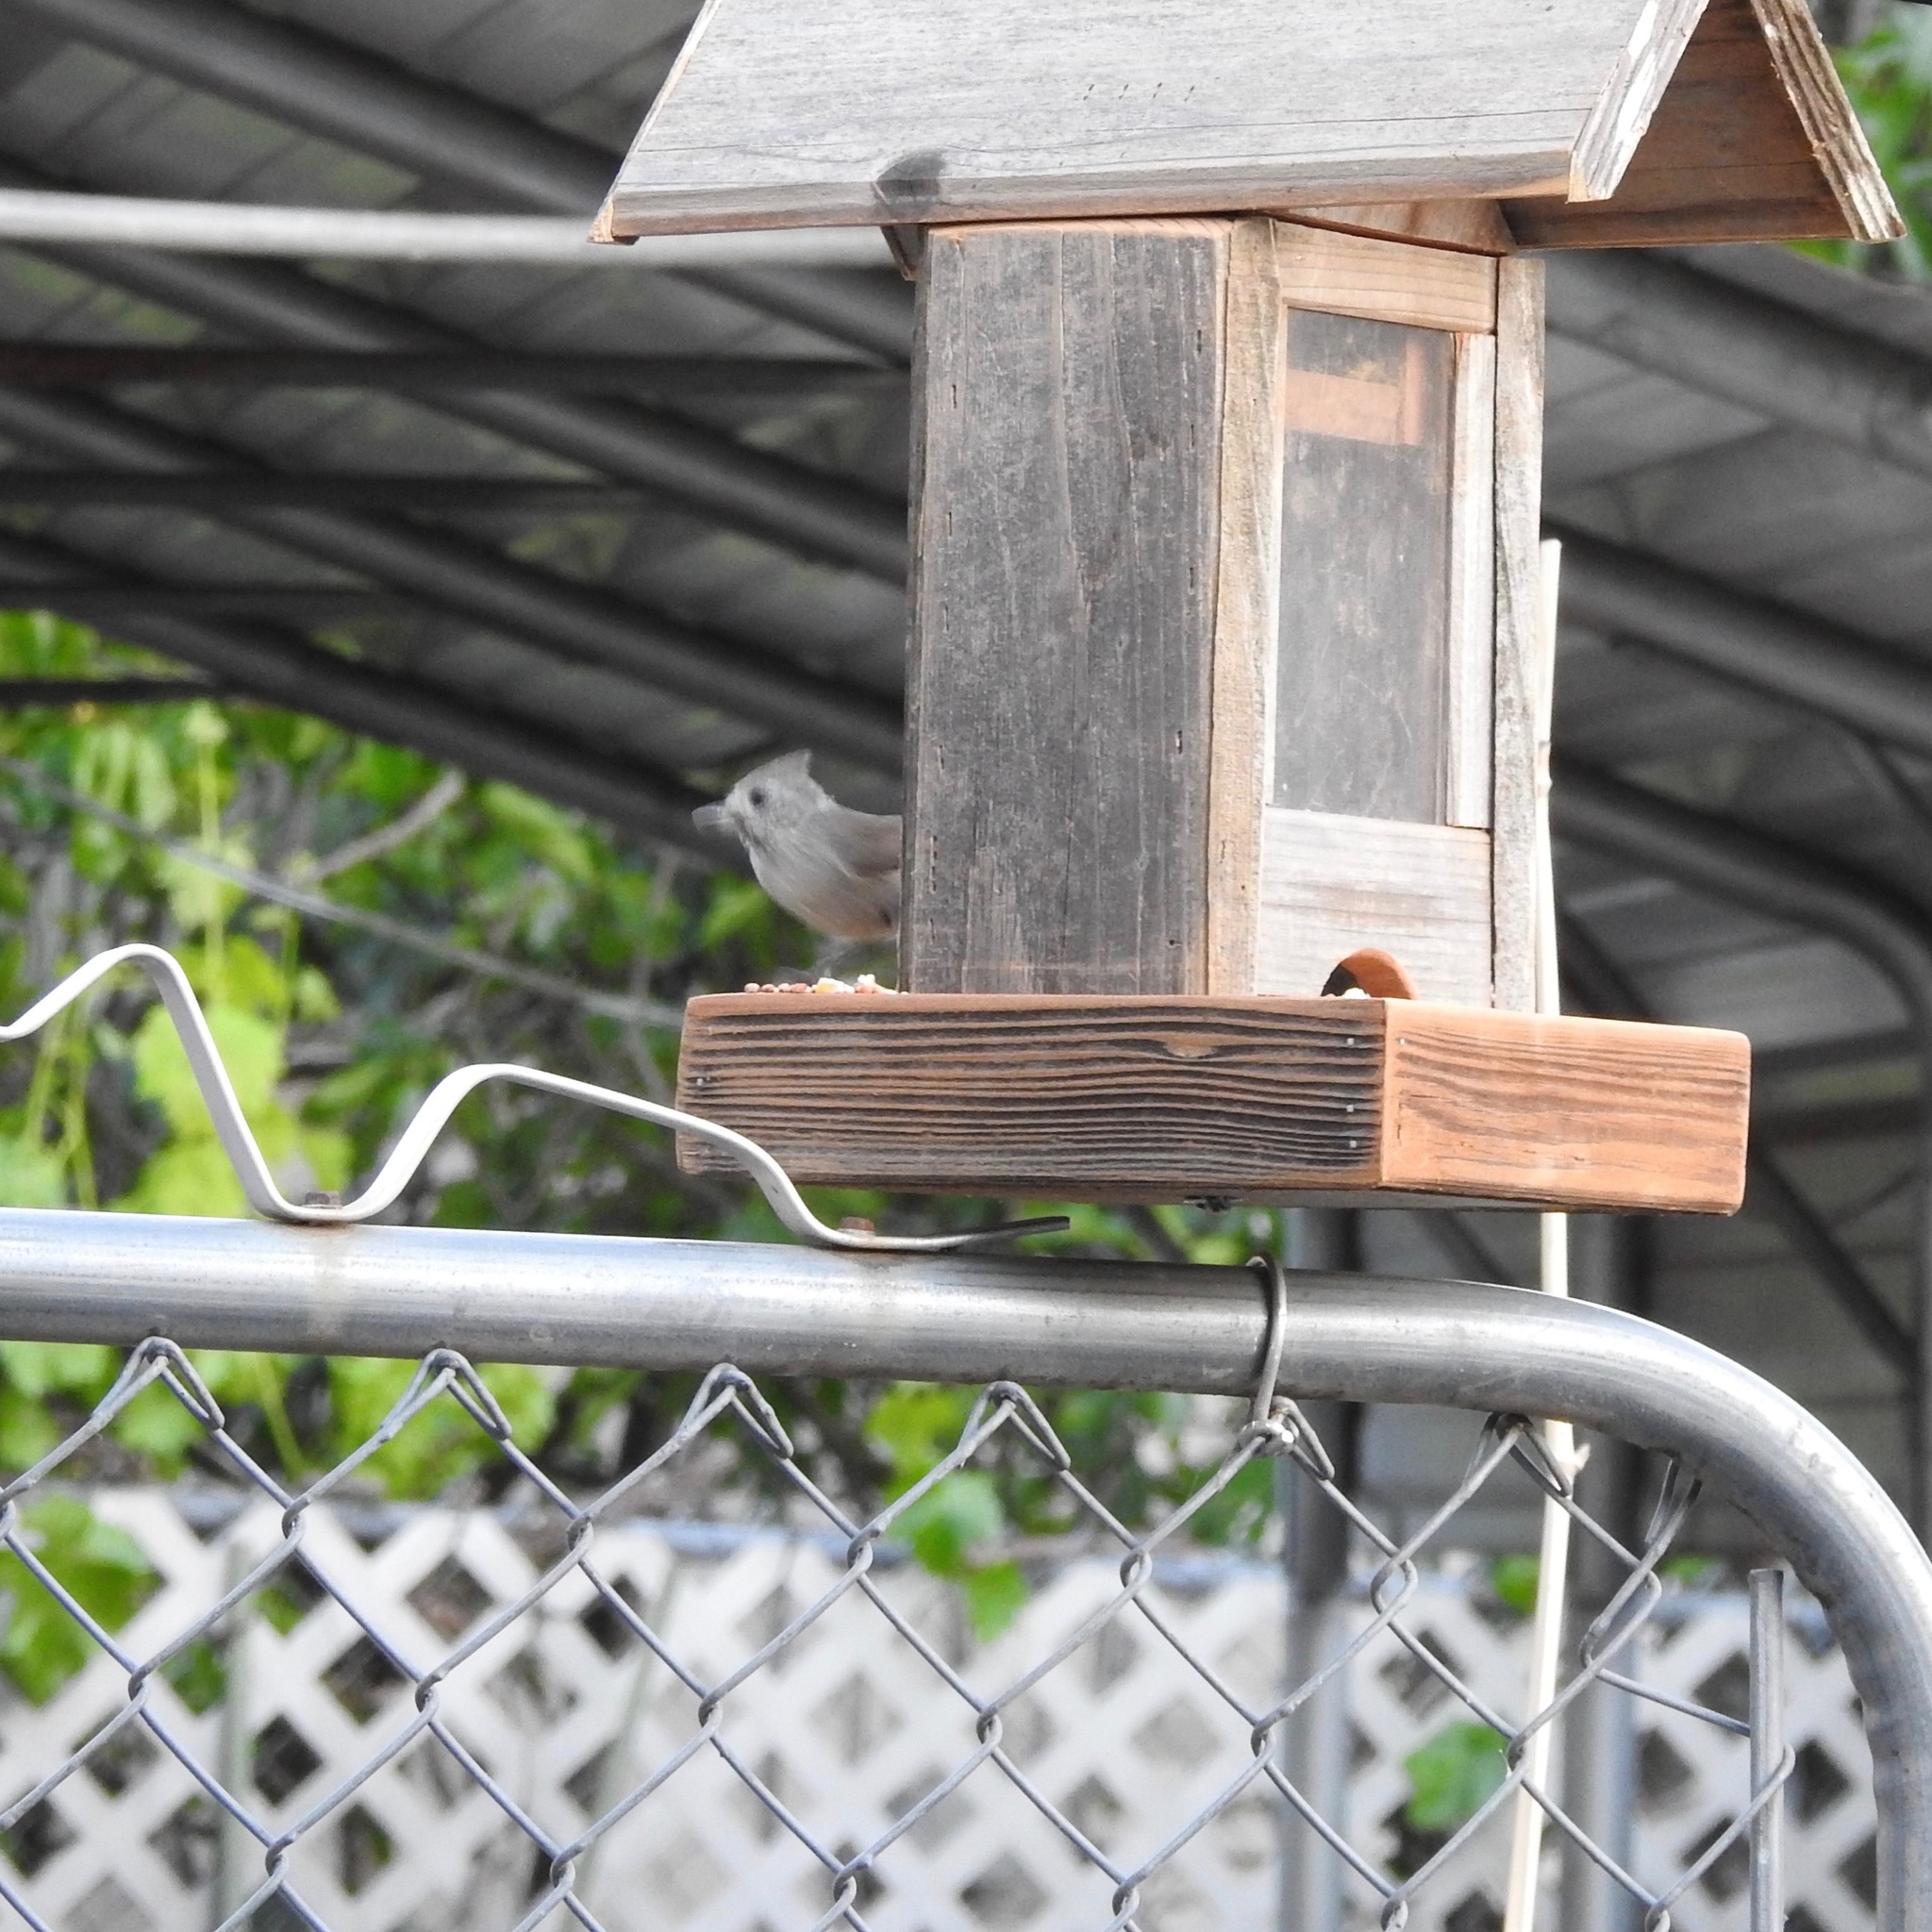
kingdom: Animalia
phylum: Chordata
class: Aves
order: Passeriformes
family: Paridae
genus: Baeolophus
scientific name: Baeolophus inornatus
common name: Oak titmouse
